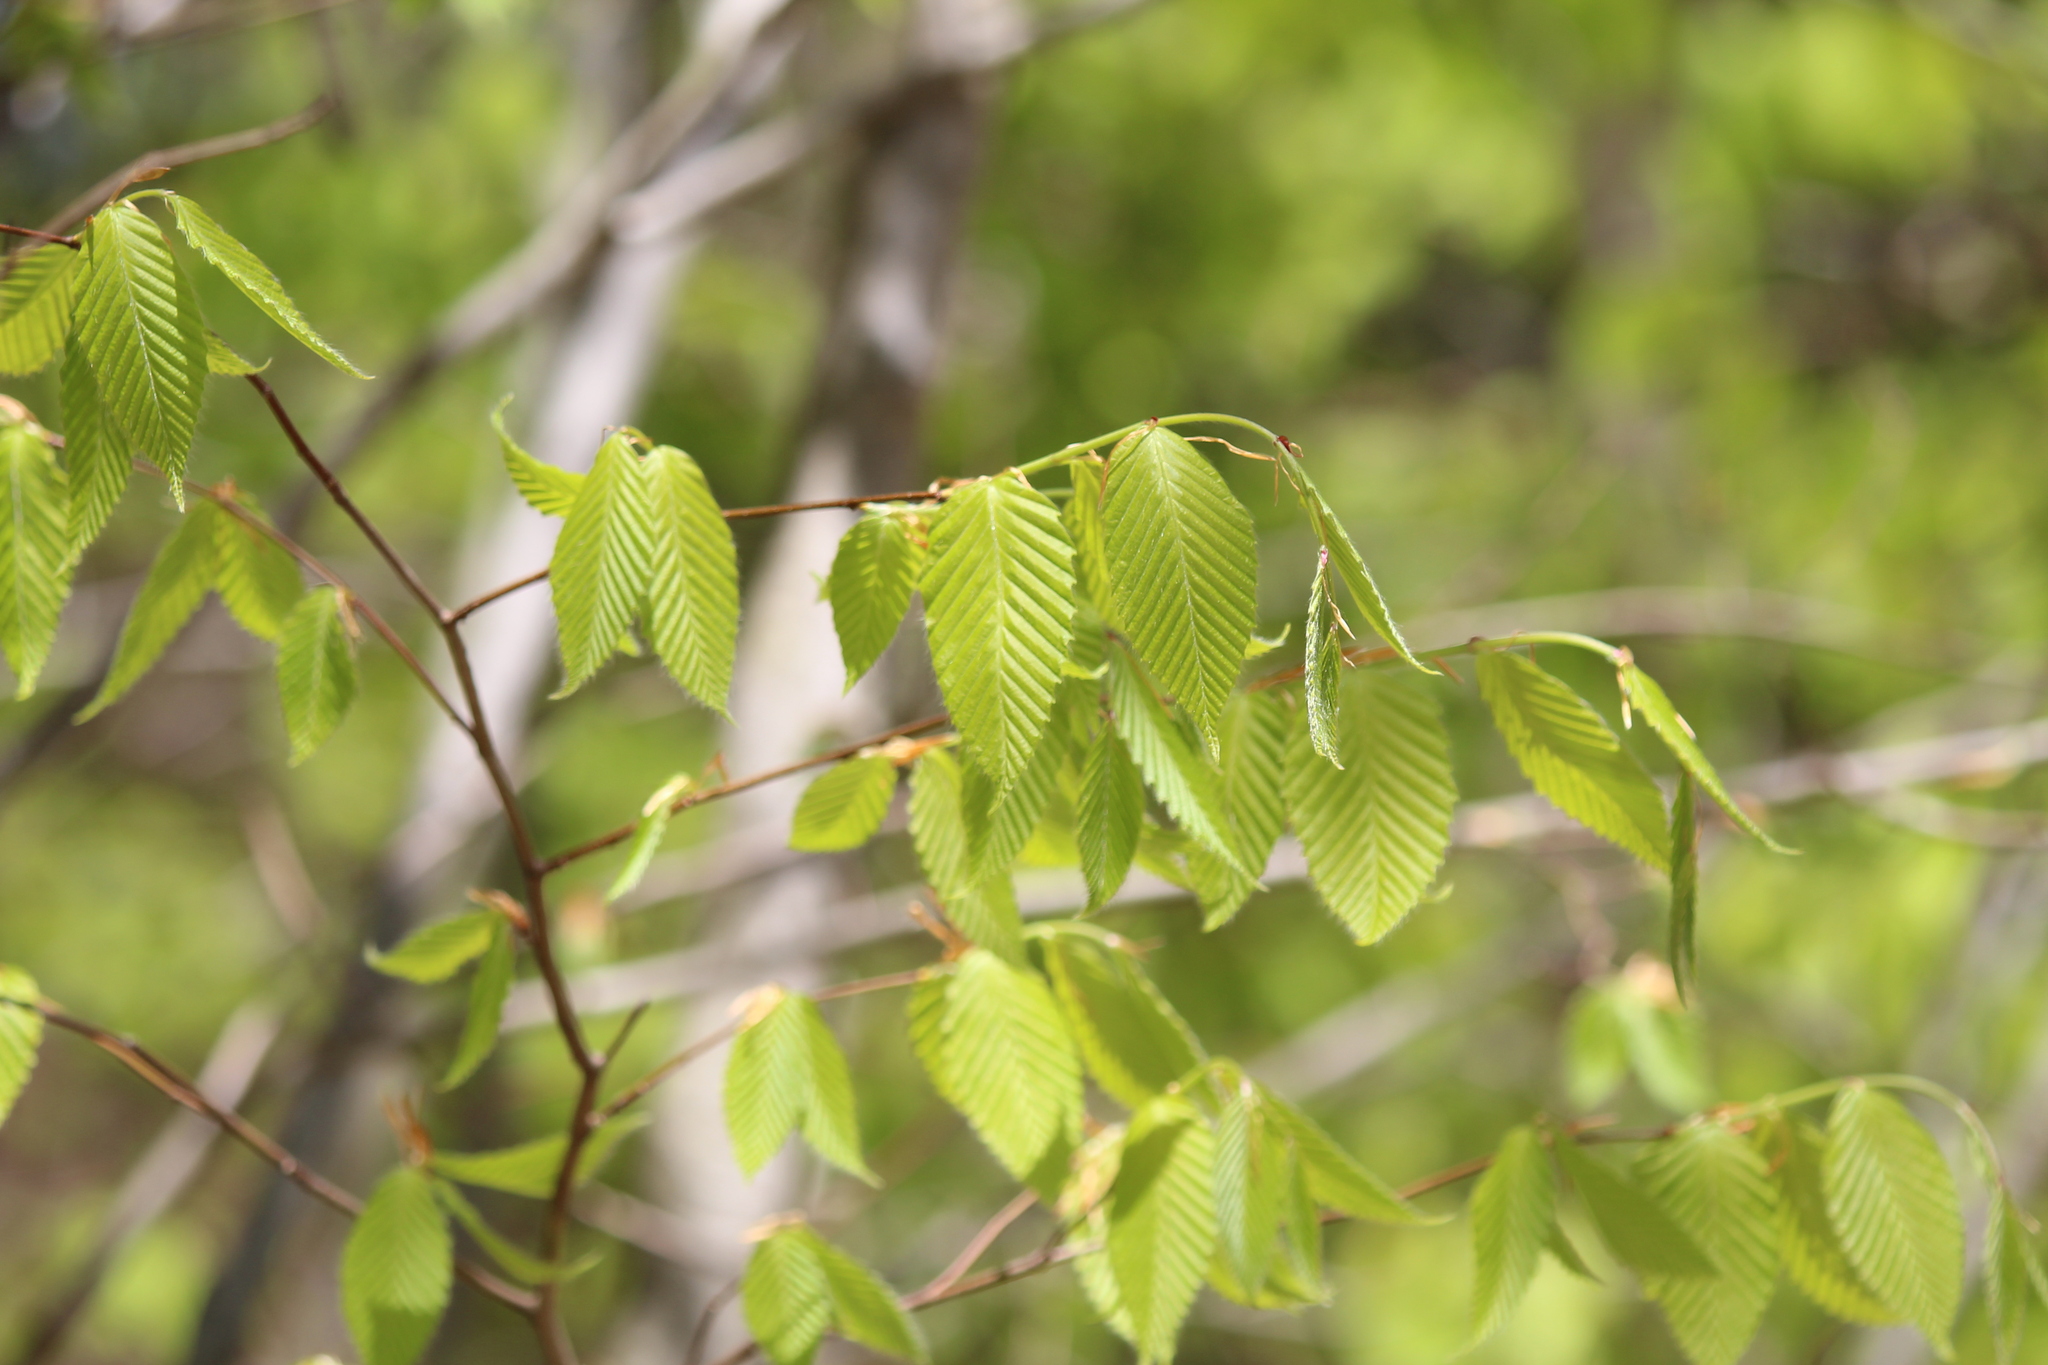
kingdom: Plantae
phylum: Tracheophyta
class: Magnoliopsida
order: Fagales
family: Fagaceae
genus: Fagus
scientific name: Fagus grandifolia
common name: American beech
